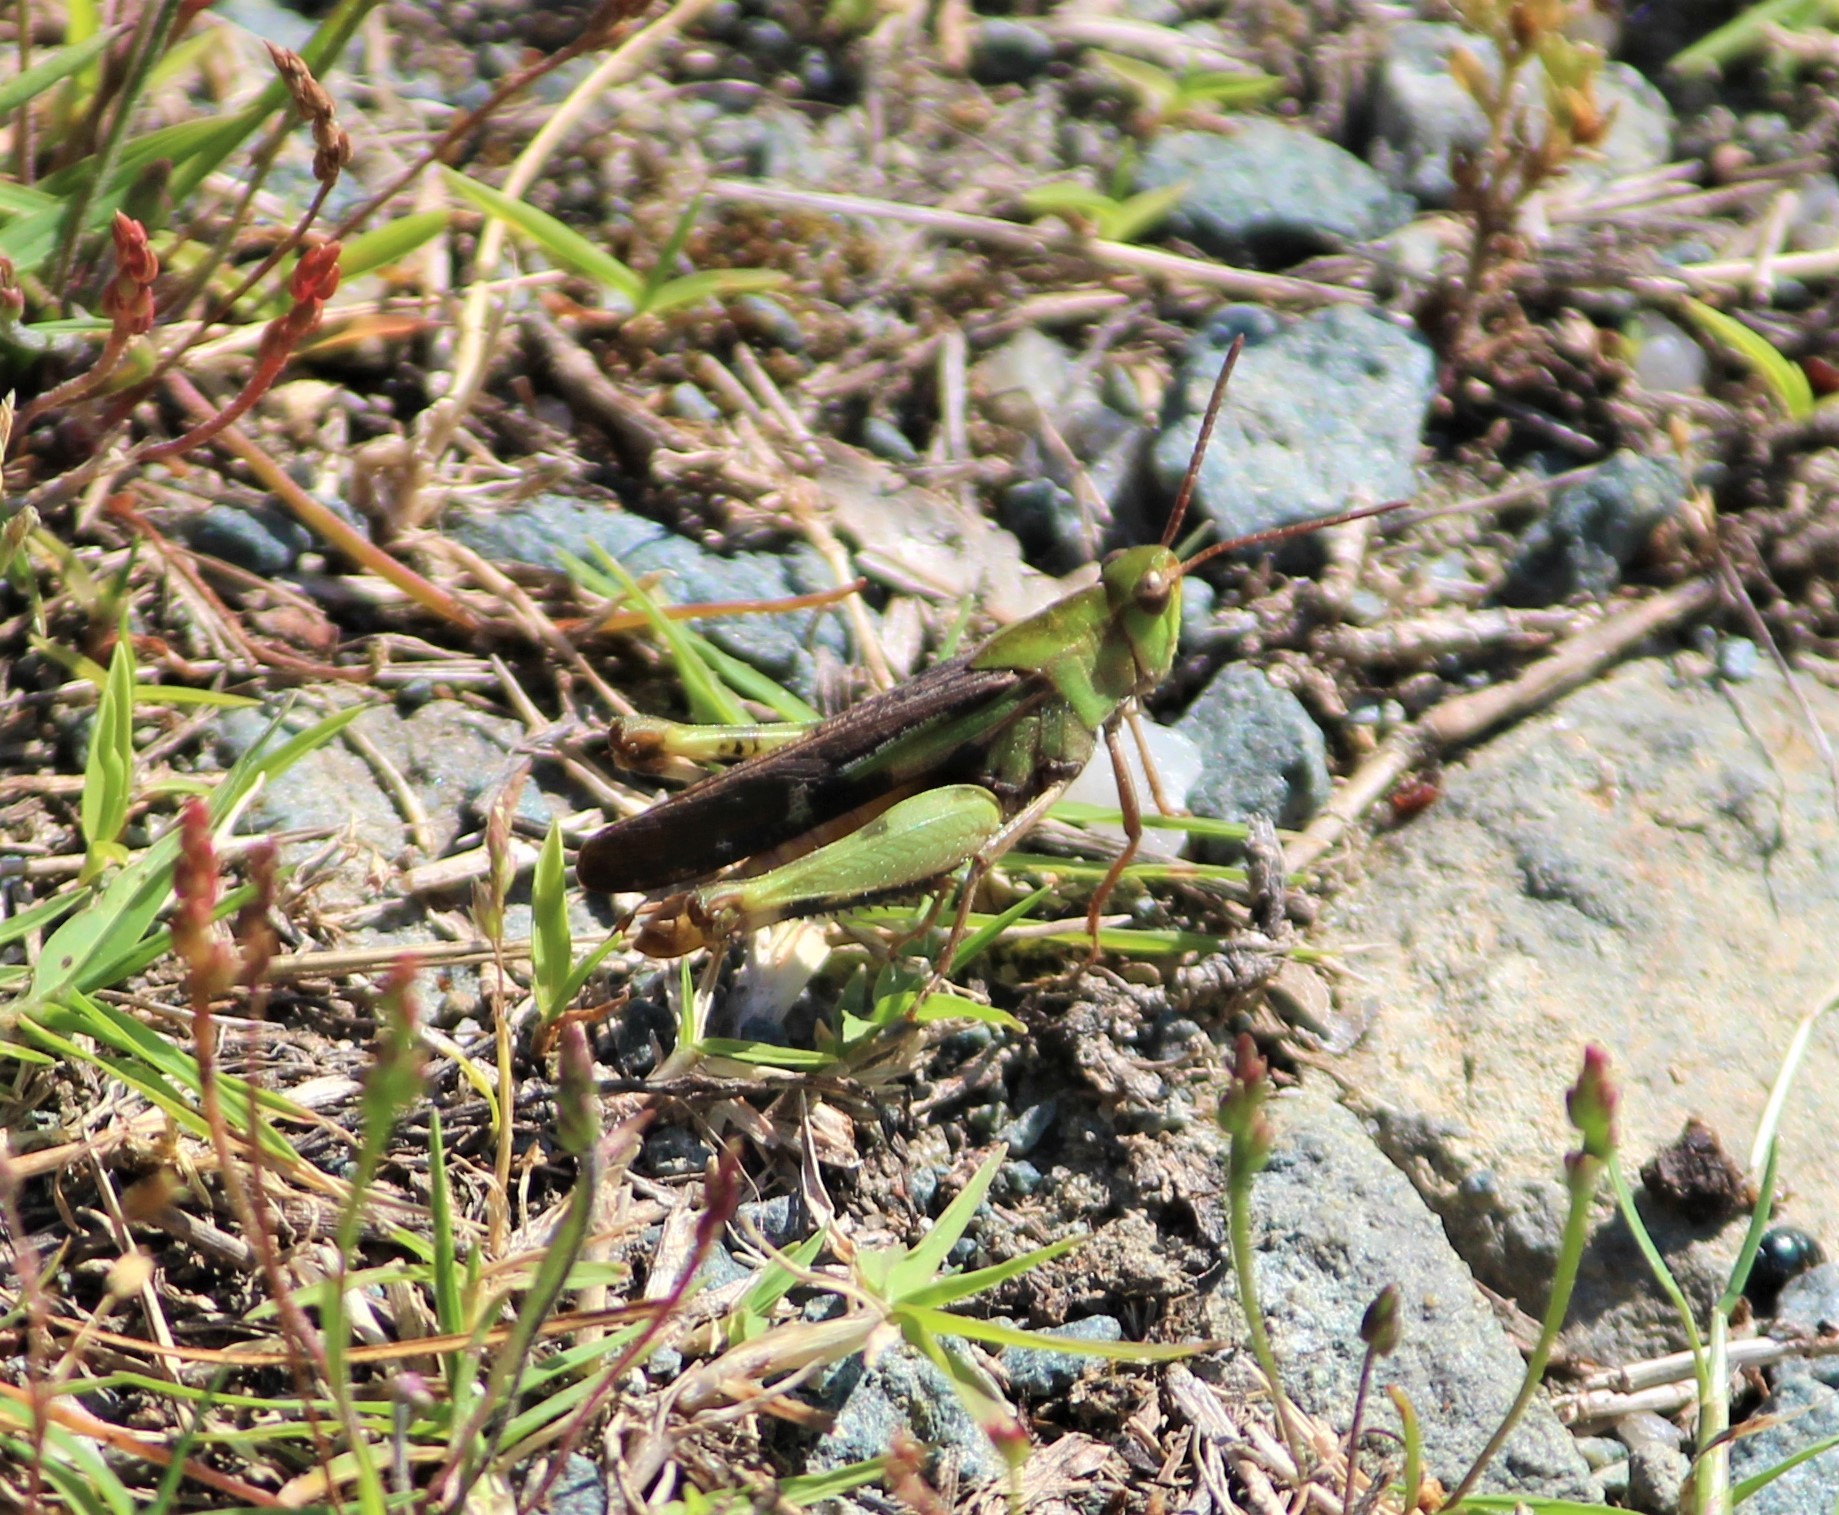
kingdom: Animalia
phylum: Arthropoda
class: Insecta
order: Orthoptera
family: Acrididae
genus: Chortophaga
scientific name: Chortophaga viridifasciata
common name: Green-striped grasshopper
